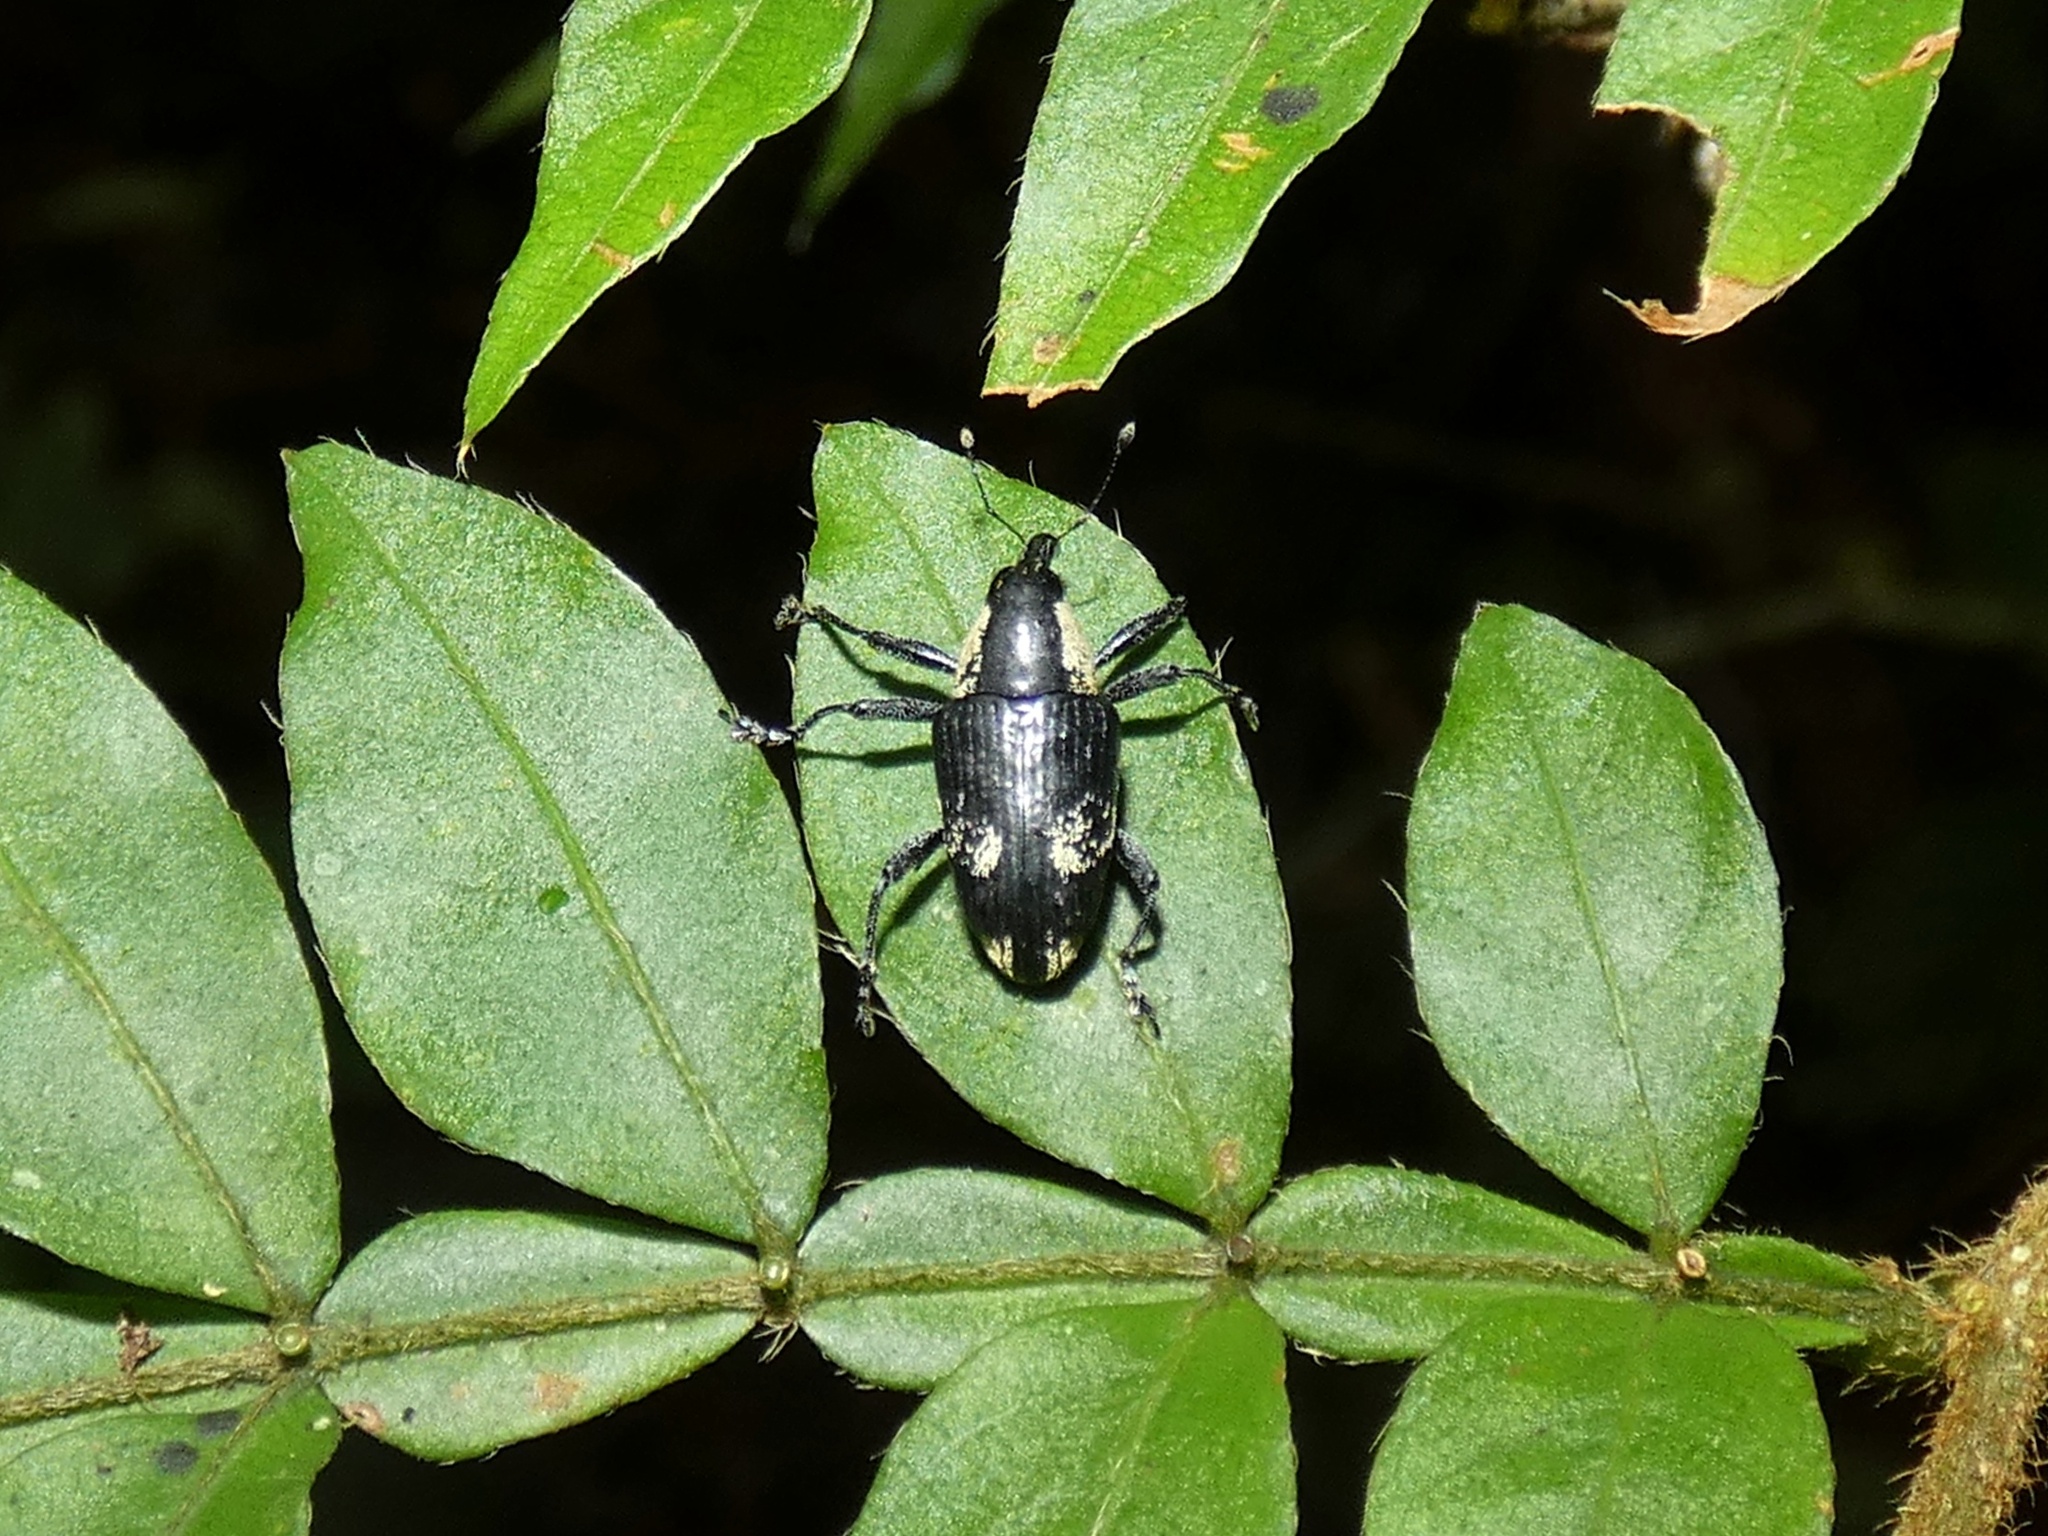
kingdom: Animalia
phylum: Arthropoda
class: Insecta
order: Coleoptera
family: Curculionidae
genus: Peridinetus
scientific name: Peridinetus cretaceus
